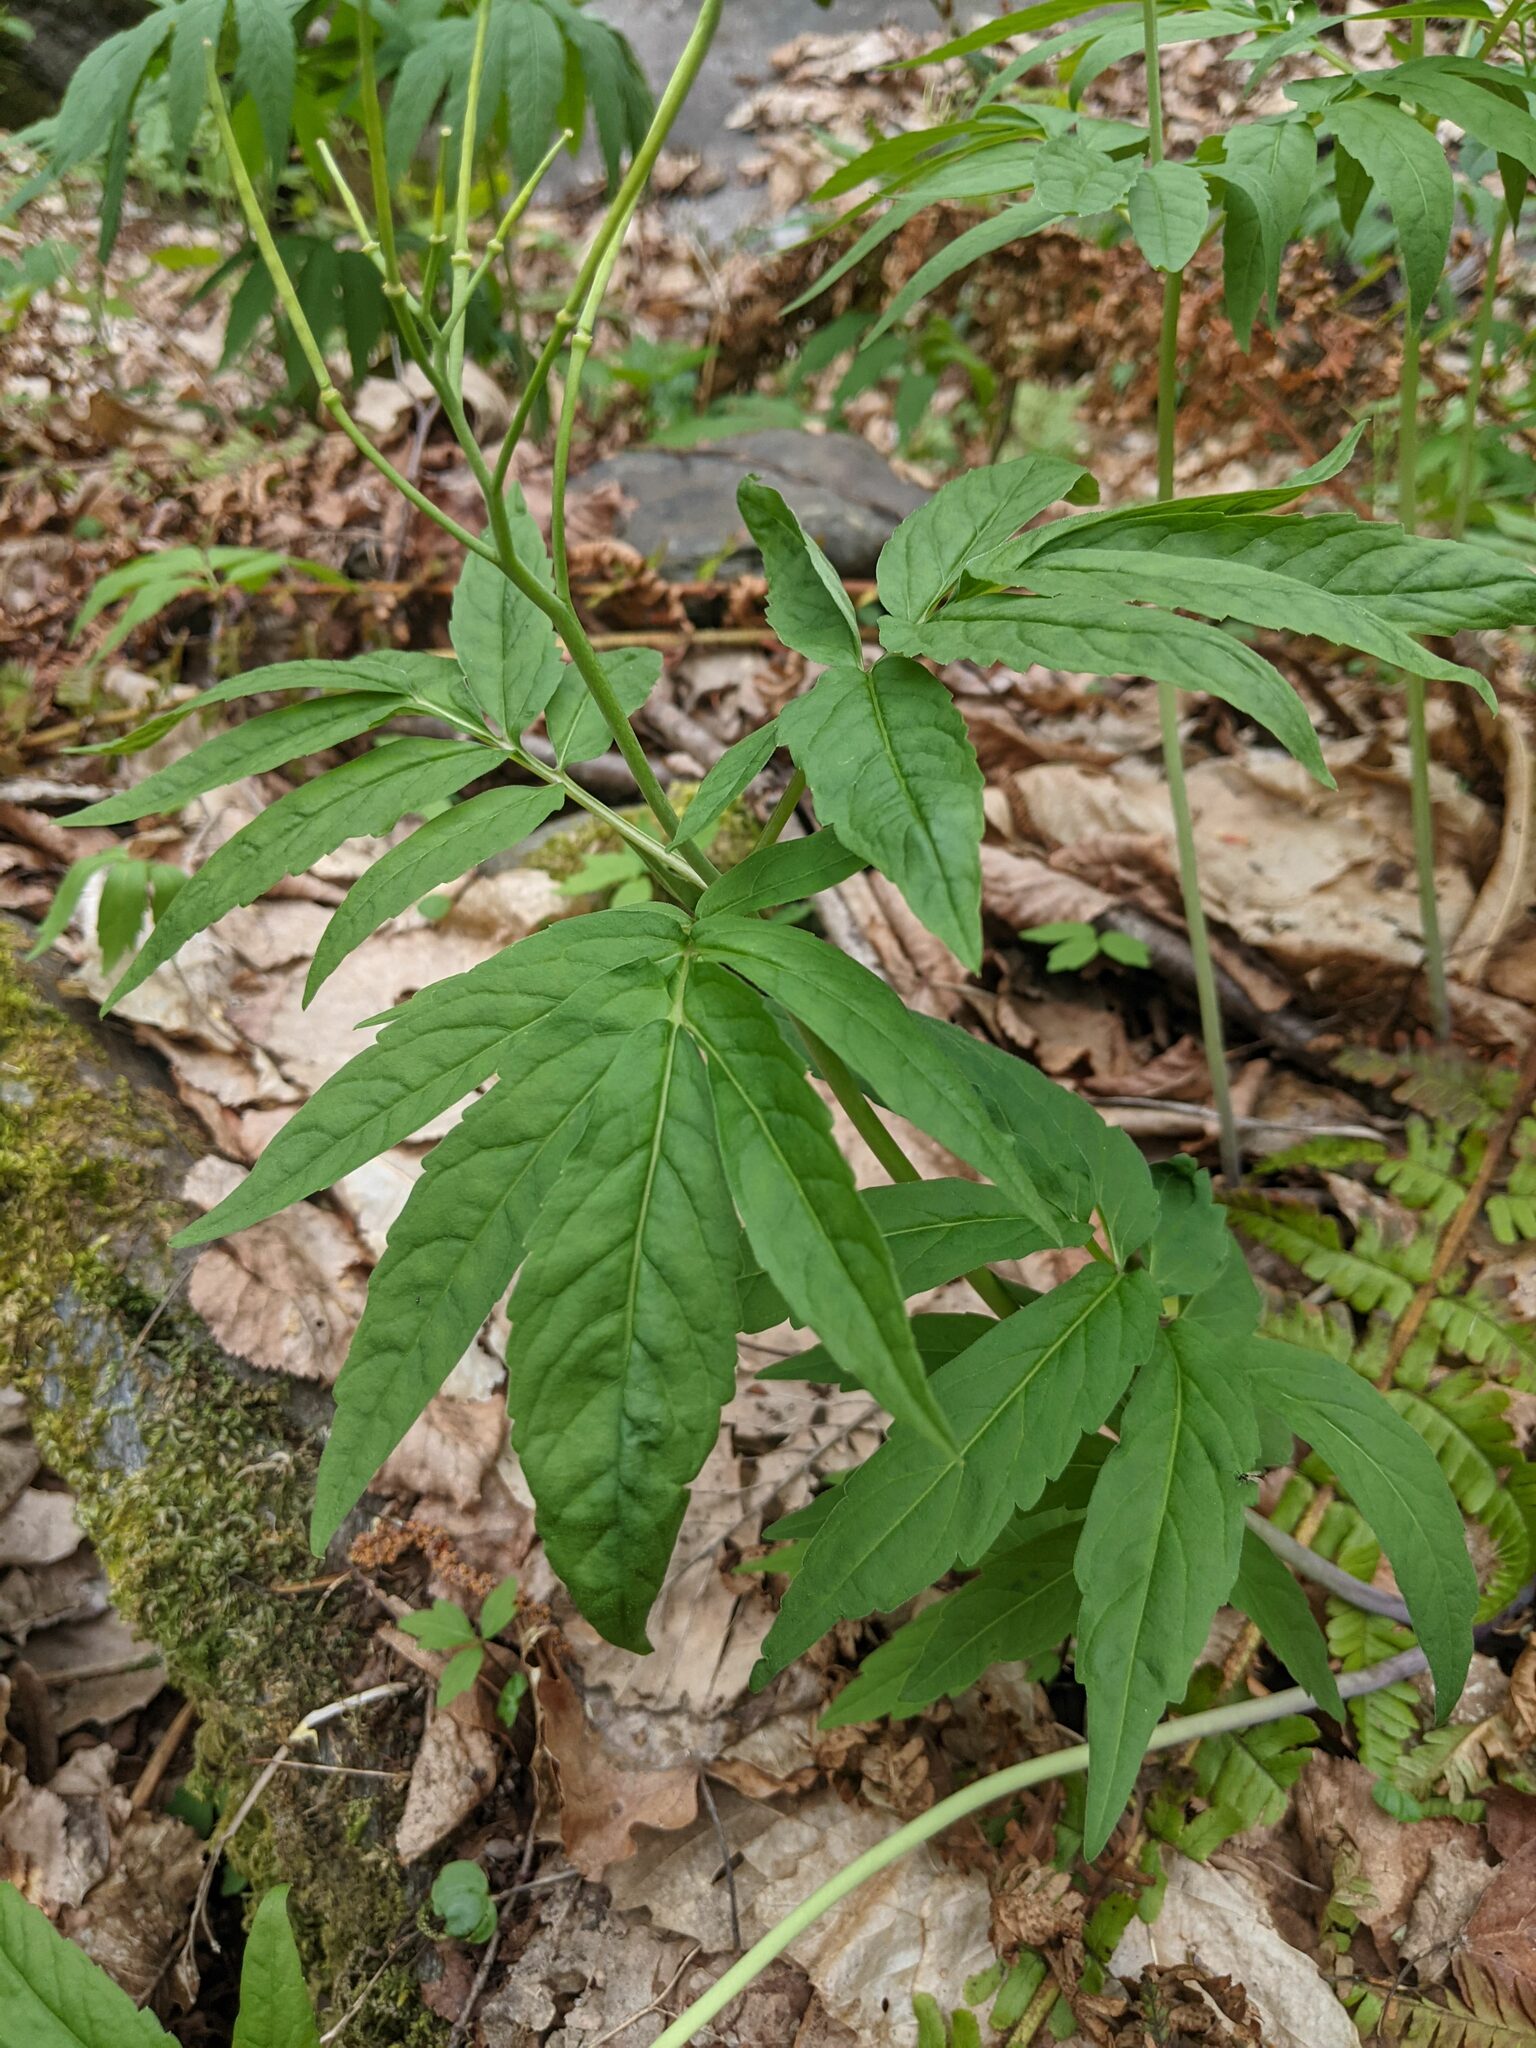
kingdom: Plantae
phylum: Tracheophyta
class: Magnoliopsida
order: Brassicales
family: Brassicaceae
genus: Cardamine
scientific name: Cardamine kitaibelii
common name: Kitaibel's bitter-cress
